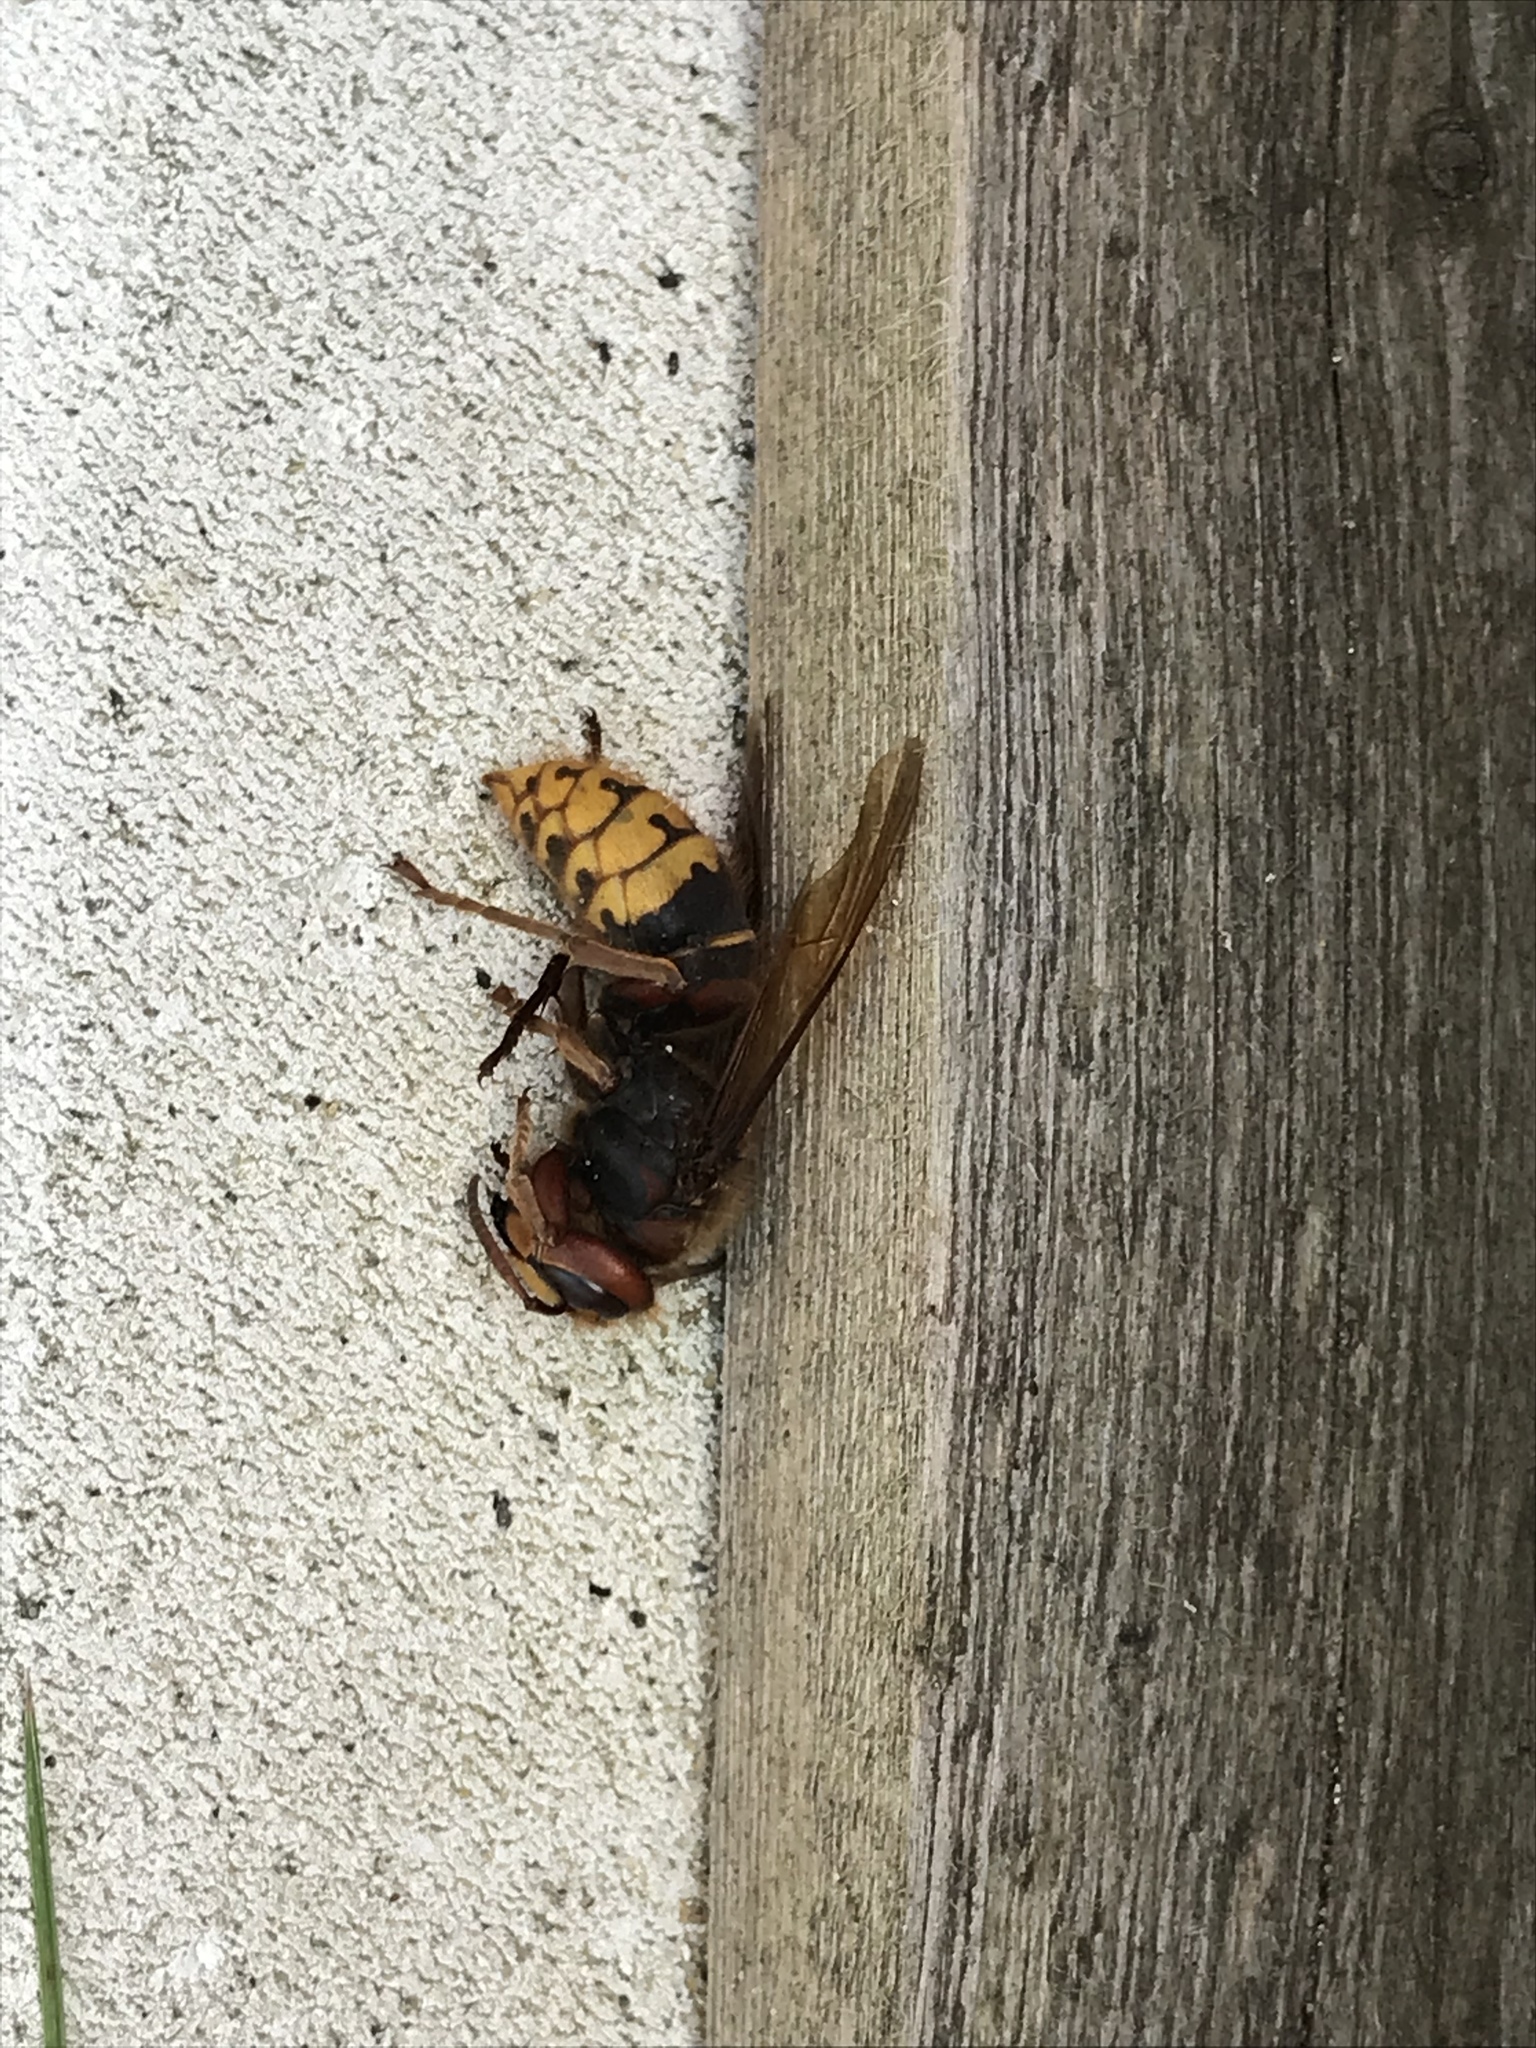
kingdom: Animalia
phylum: Arthropoda
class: Insecta
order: Hymenoptera
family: Vespidae
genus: Vespa
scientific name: Vespa crabro
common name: Hornet
